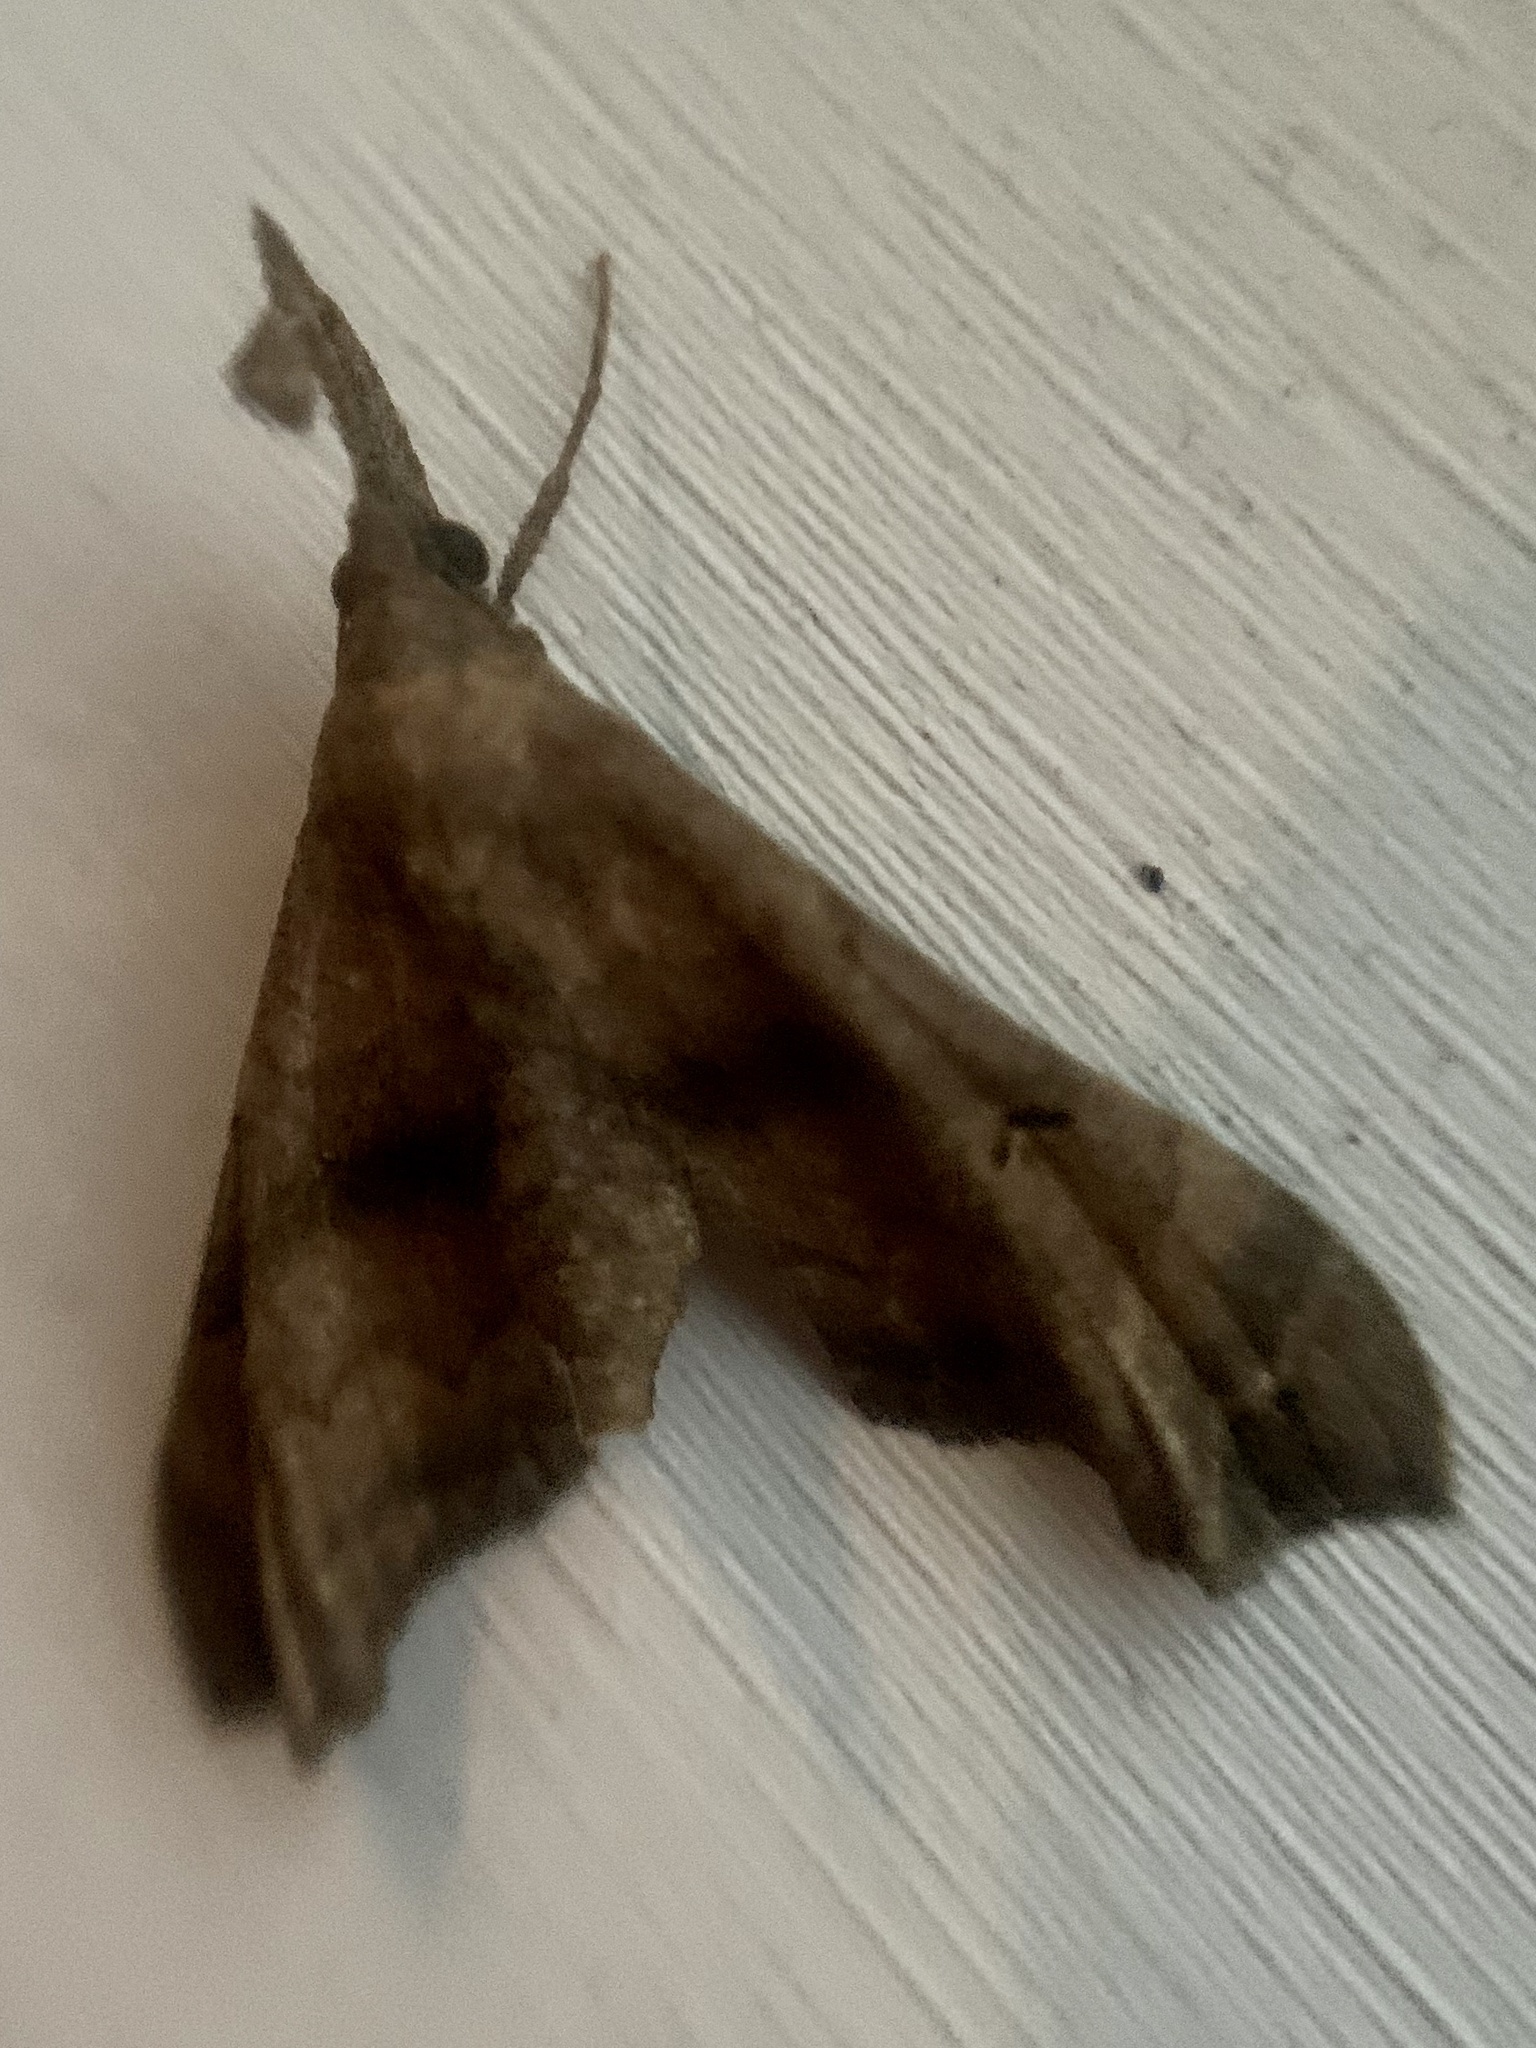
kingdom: Animalia
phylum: Arthropoda
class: Insecta
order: Lepidoptera
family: Erebidae
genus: Palthis
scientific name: Palthis asopialis
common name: Faint-spotted palthis moth
